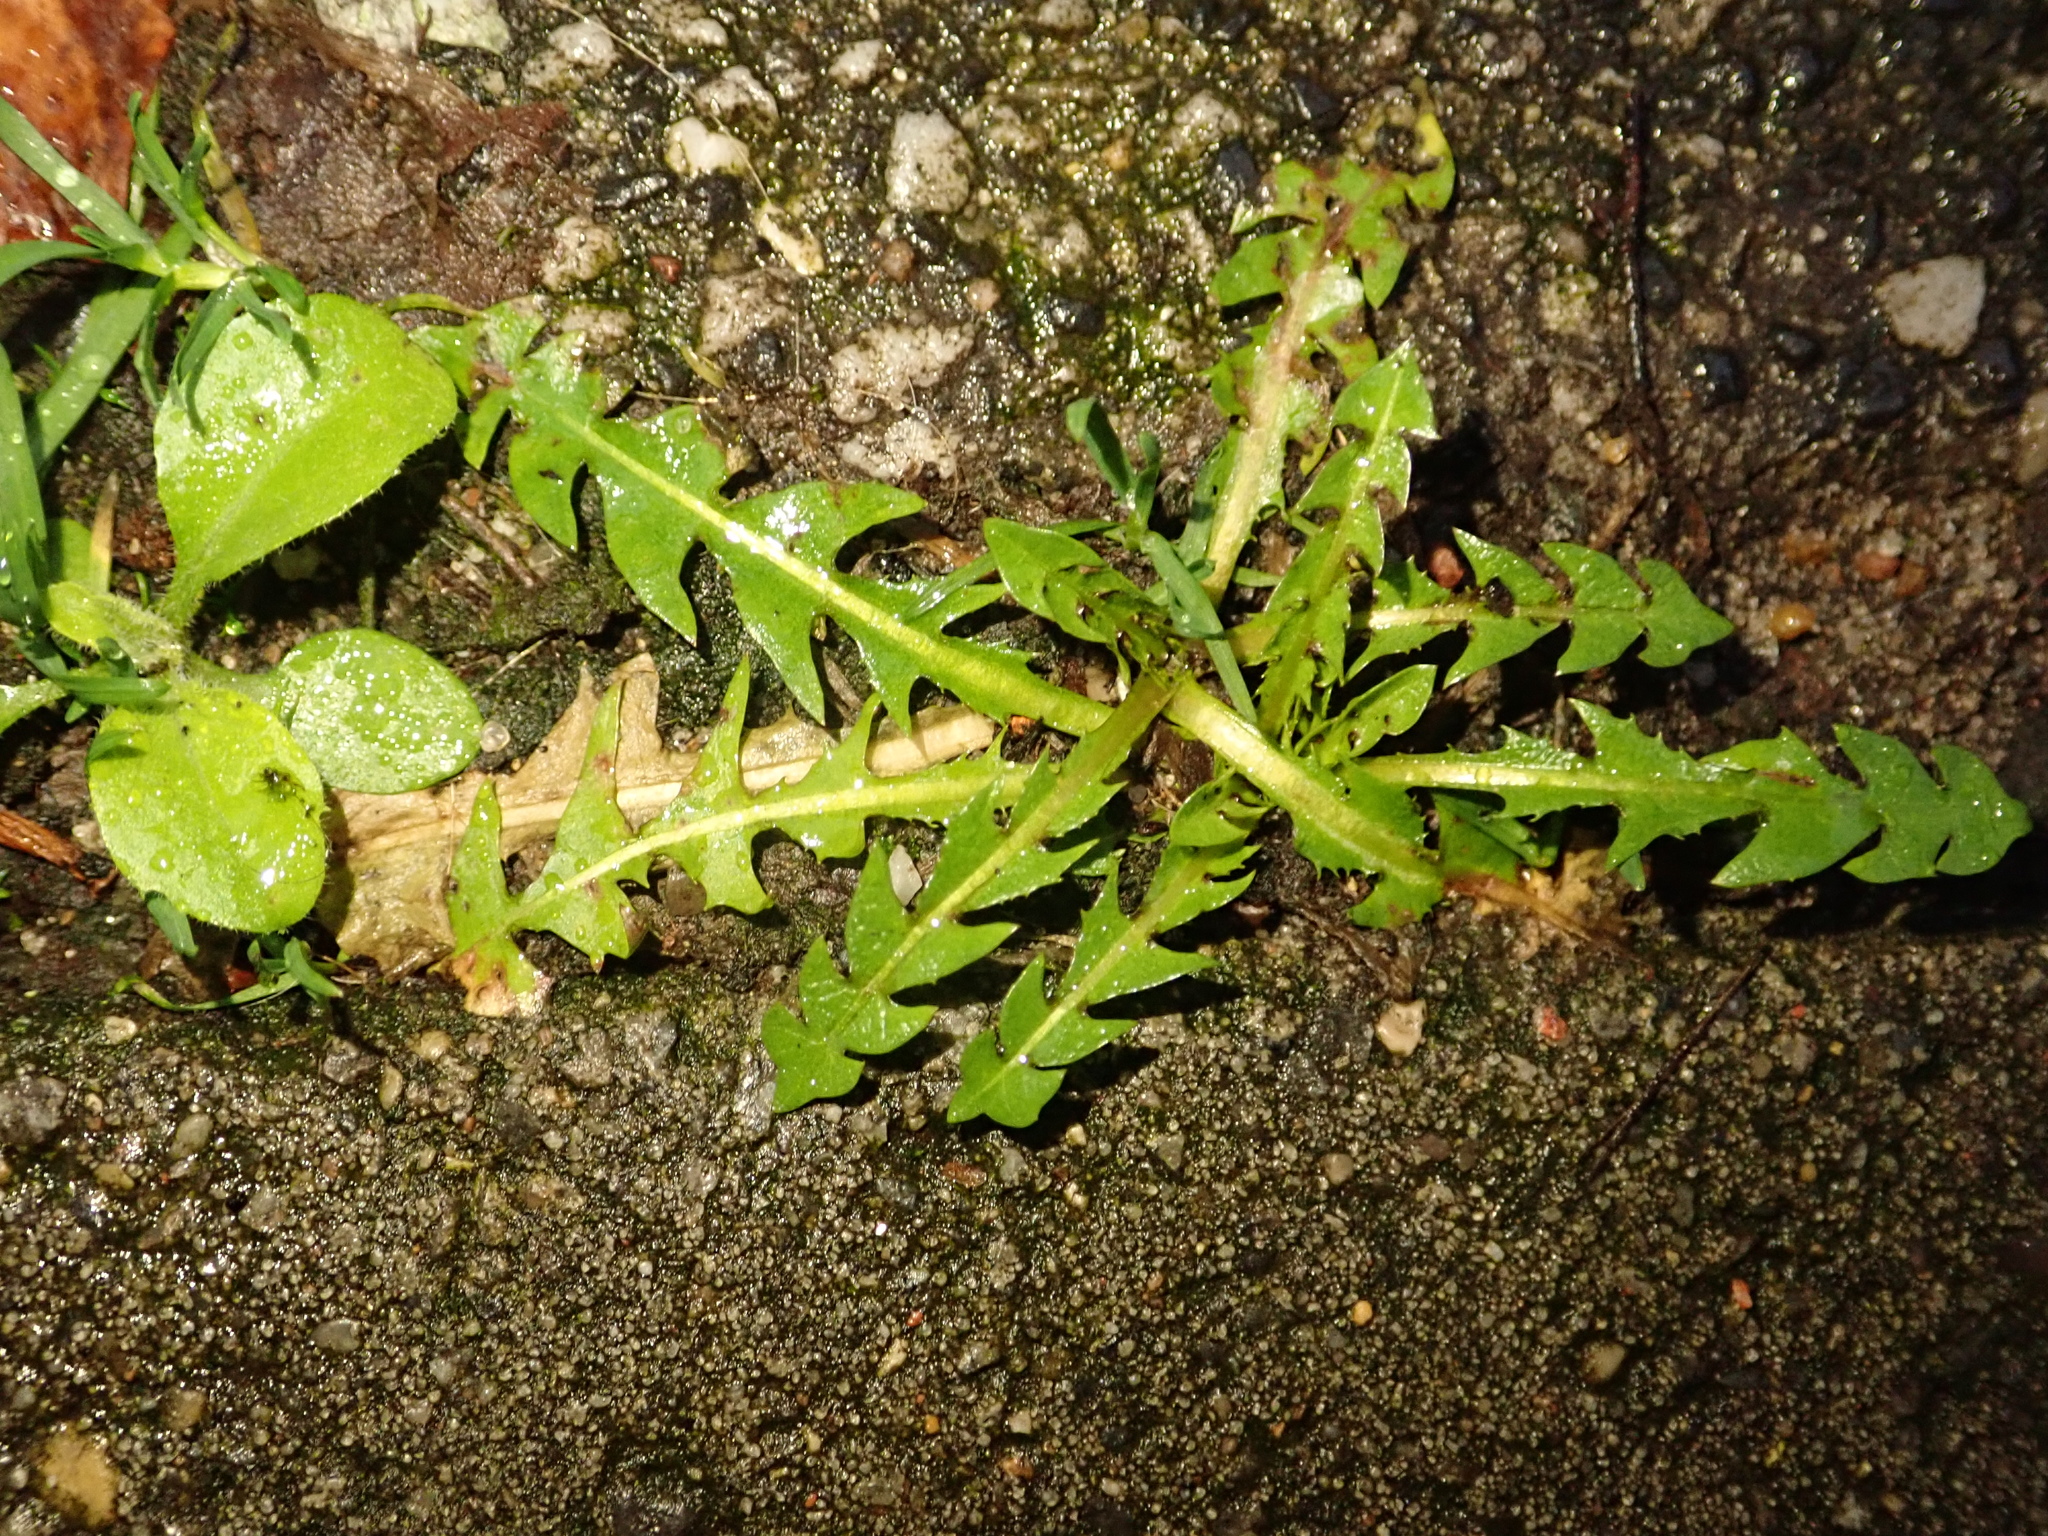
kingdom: Plantae
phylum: Tracheophyta
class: Magnoliopsida
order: Asterales
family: Asteraceae
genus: Taraxacum
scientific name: Taraxacum officinale
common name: Common dandelion
